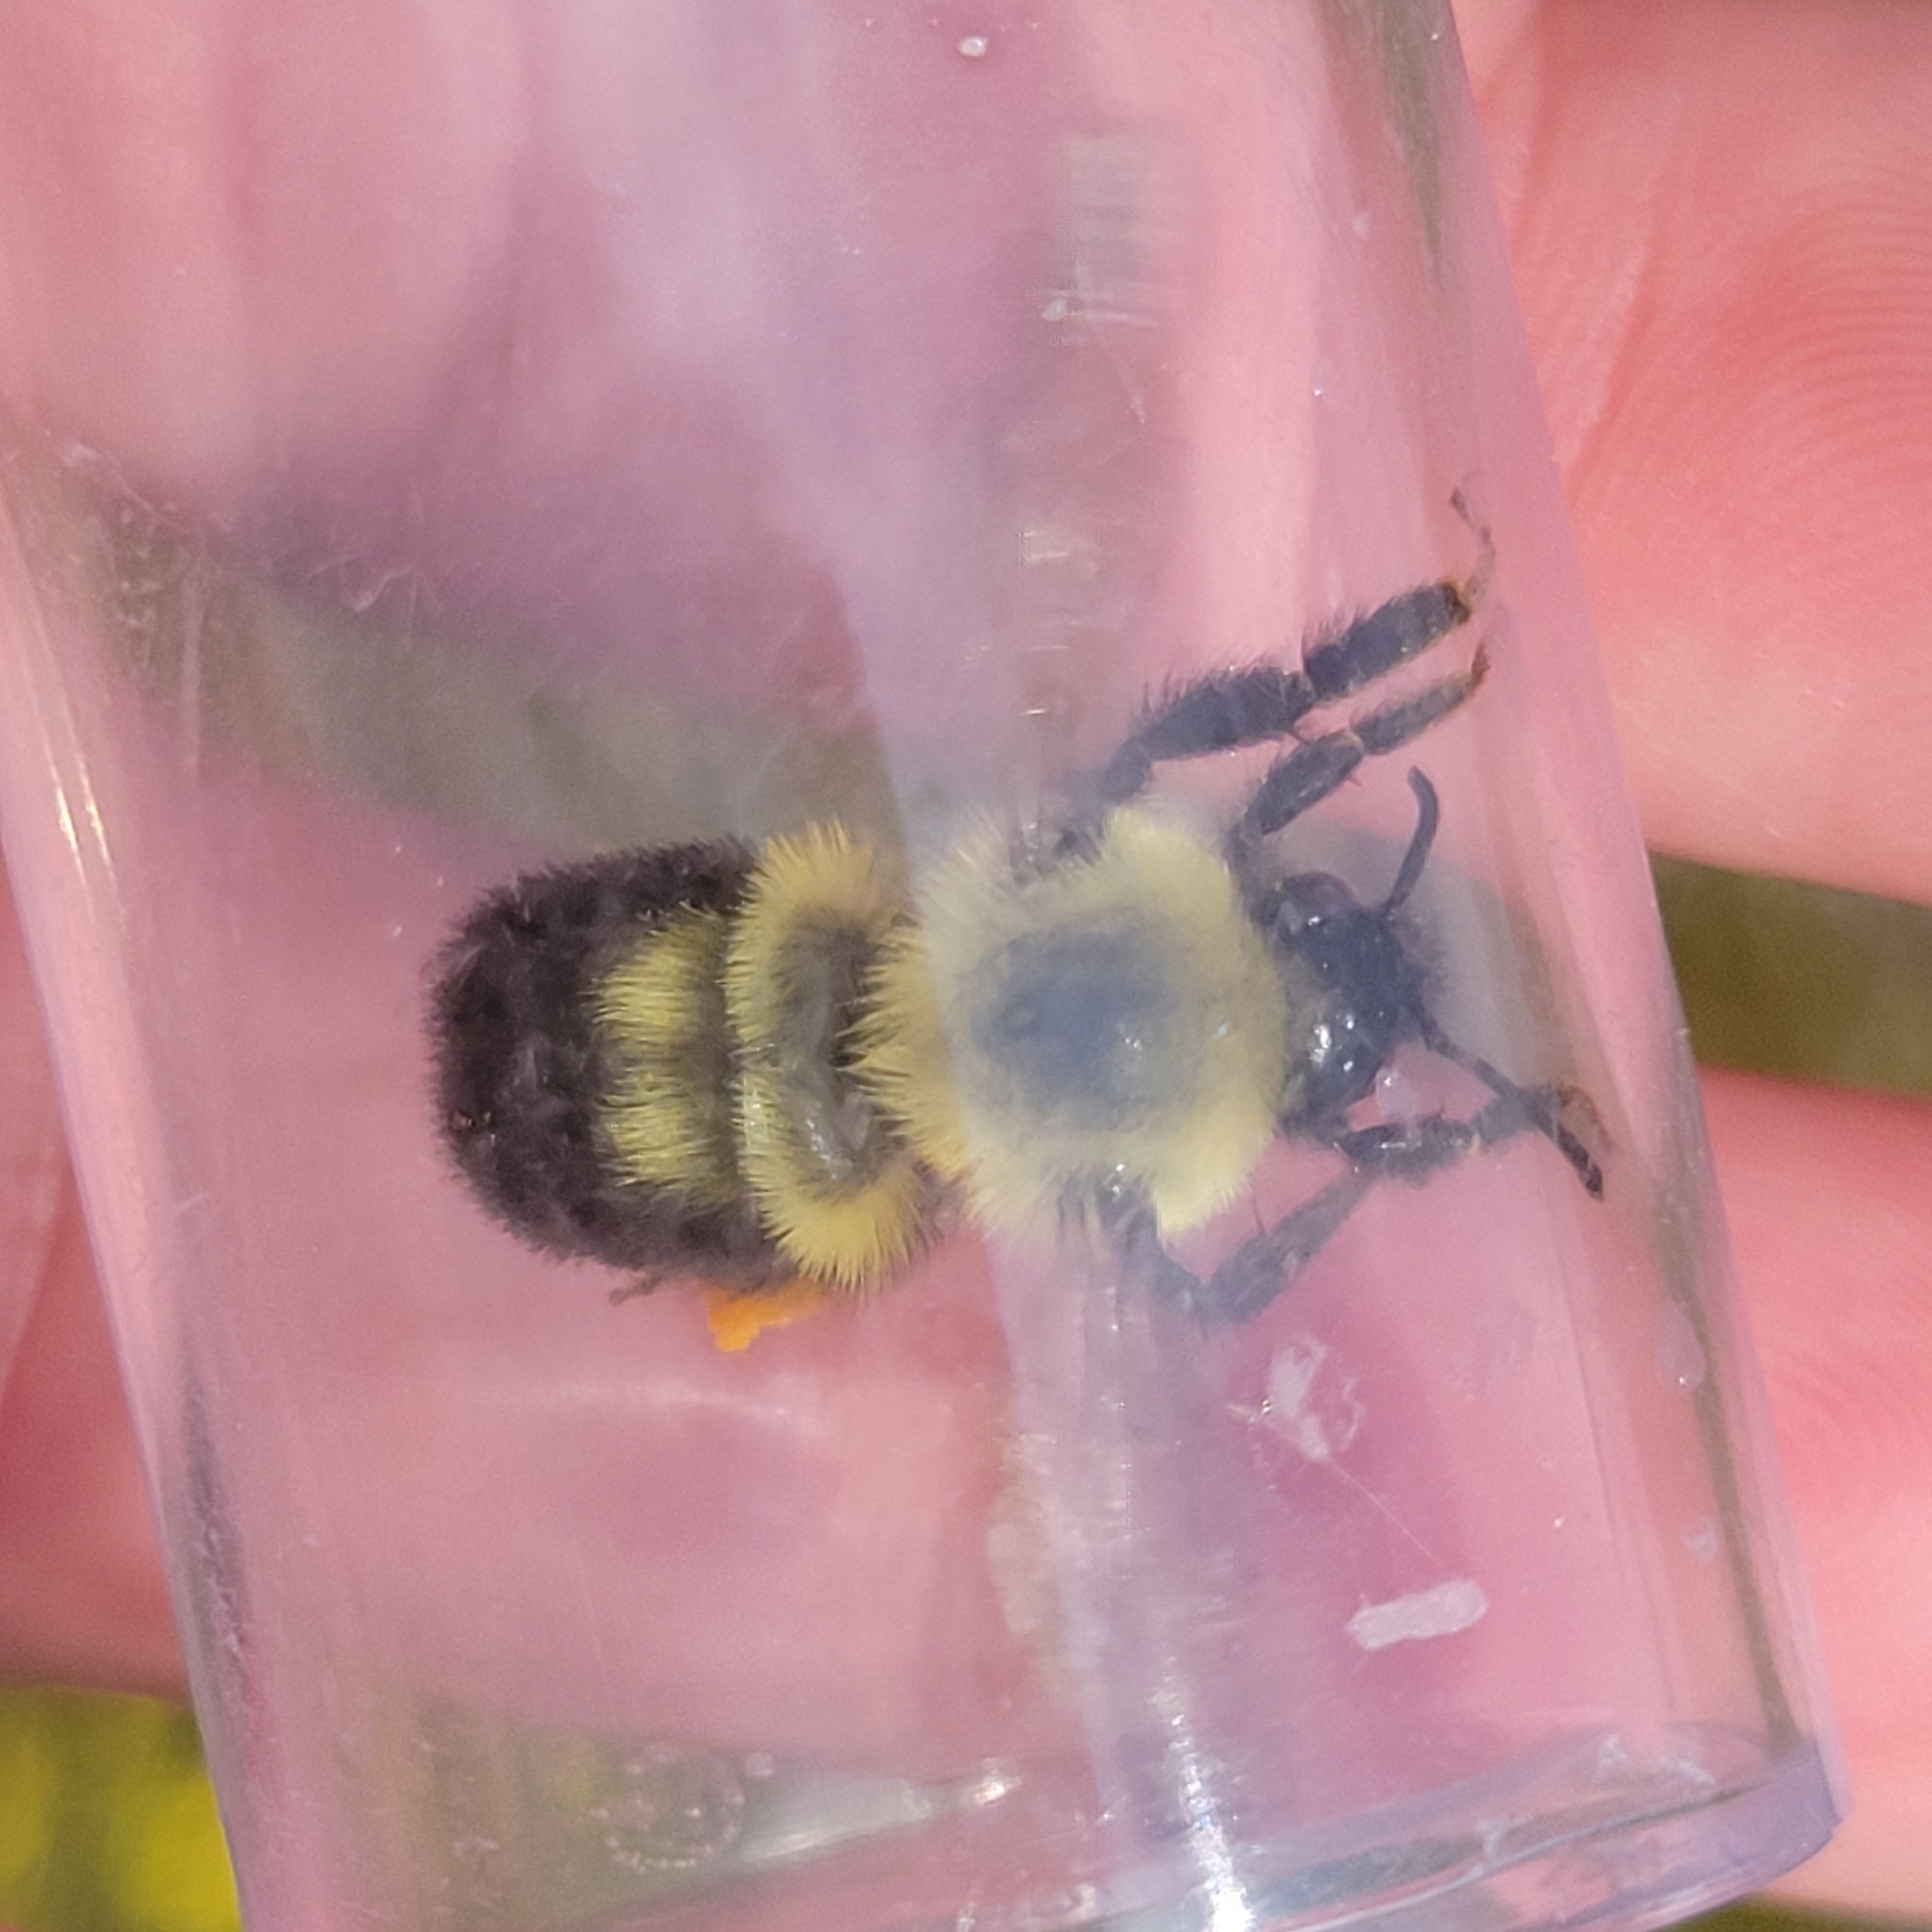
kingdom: Animalia
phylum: Arthropoda
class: Insecta
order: Hymenoptera
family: Apidae
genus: Bombus
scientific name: Bombus bimaculatus
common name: Two-spotted bumble bee
